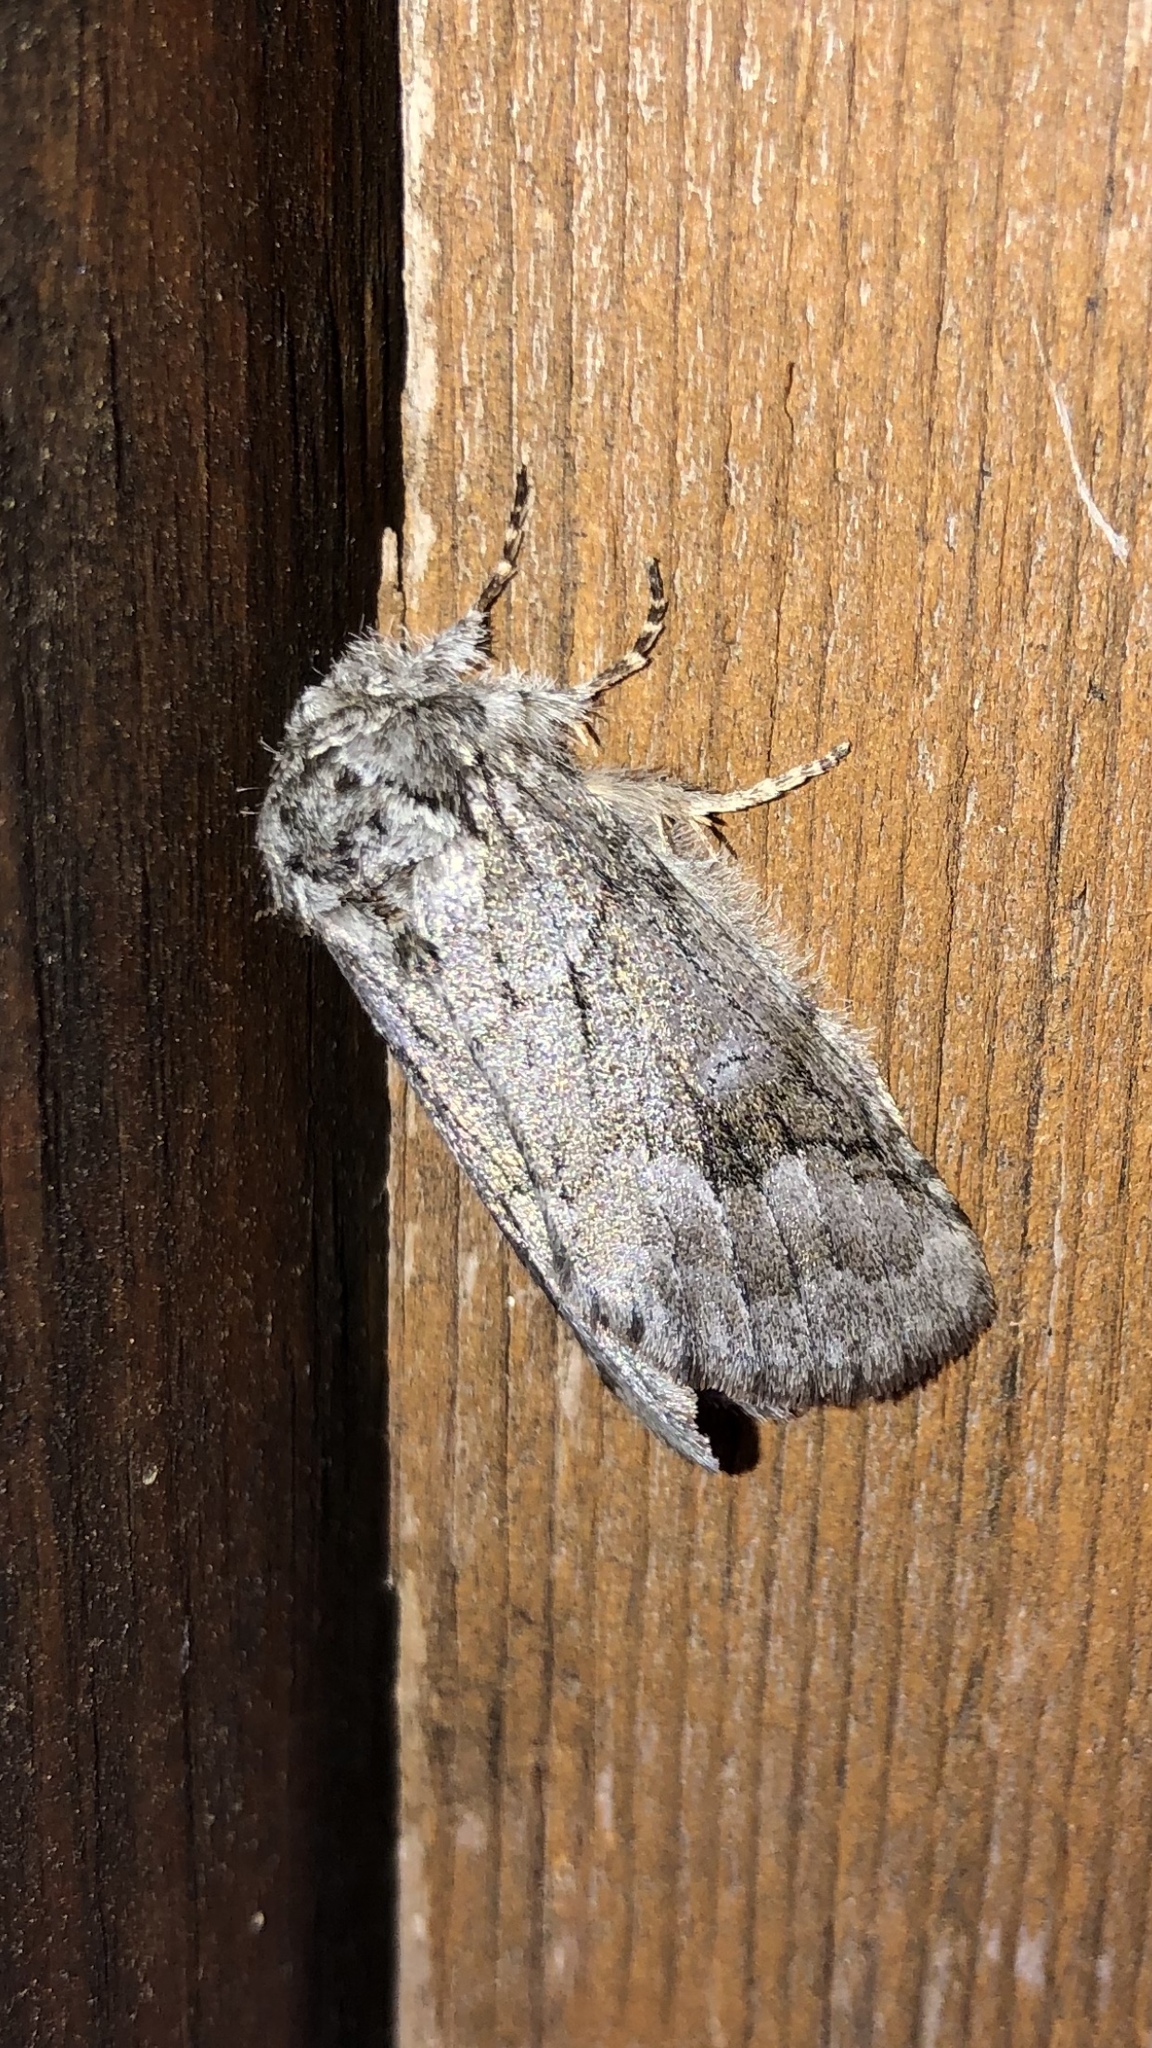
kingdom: Animalia
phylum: Arthropoda
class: Insecta
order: Lepidoptera
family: Notodontidae
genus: Lochmaeus
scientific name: Lochmaeus bilineata
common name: Double-lined prominent
